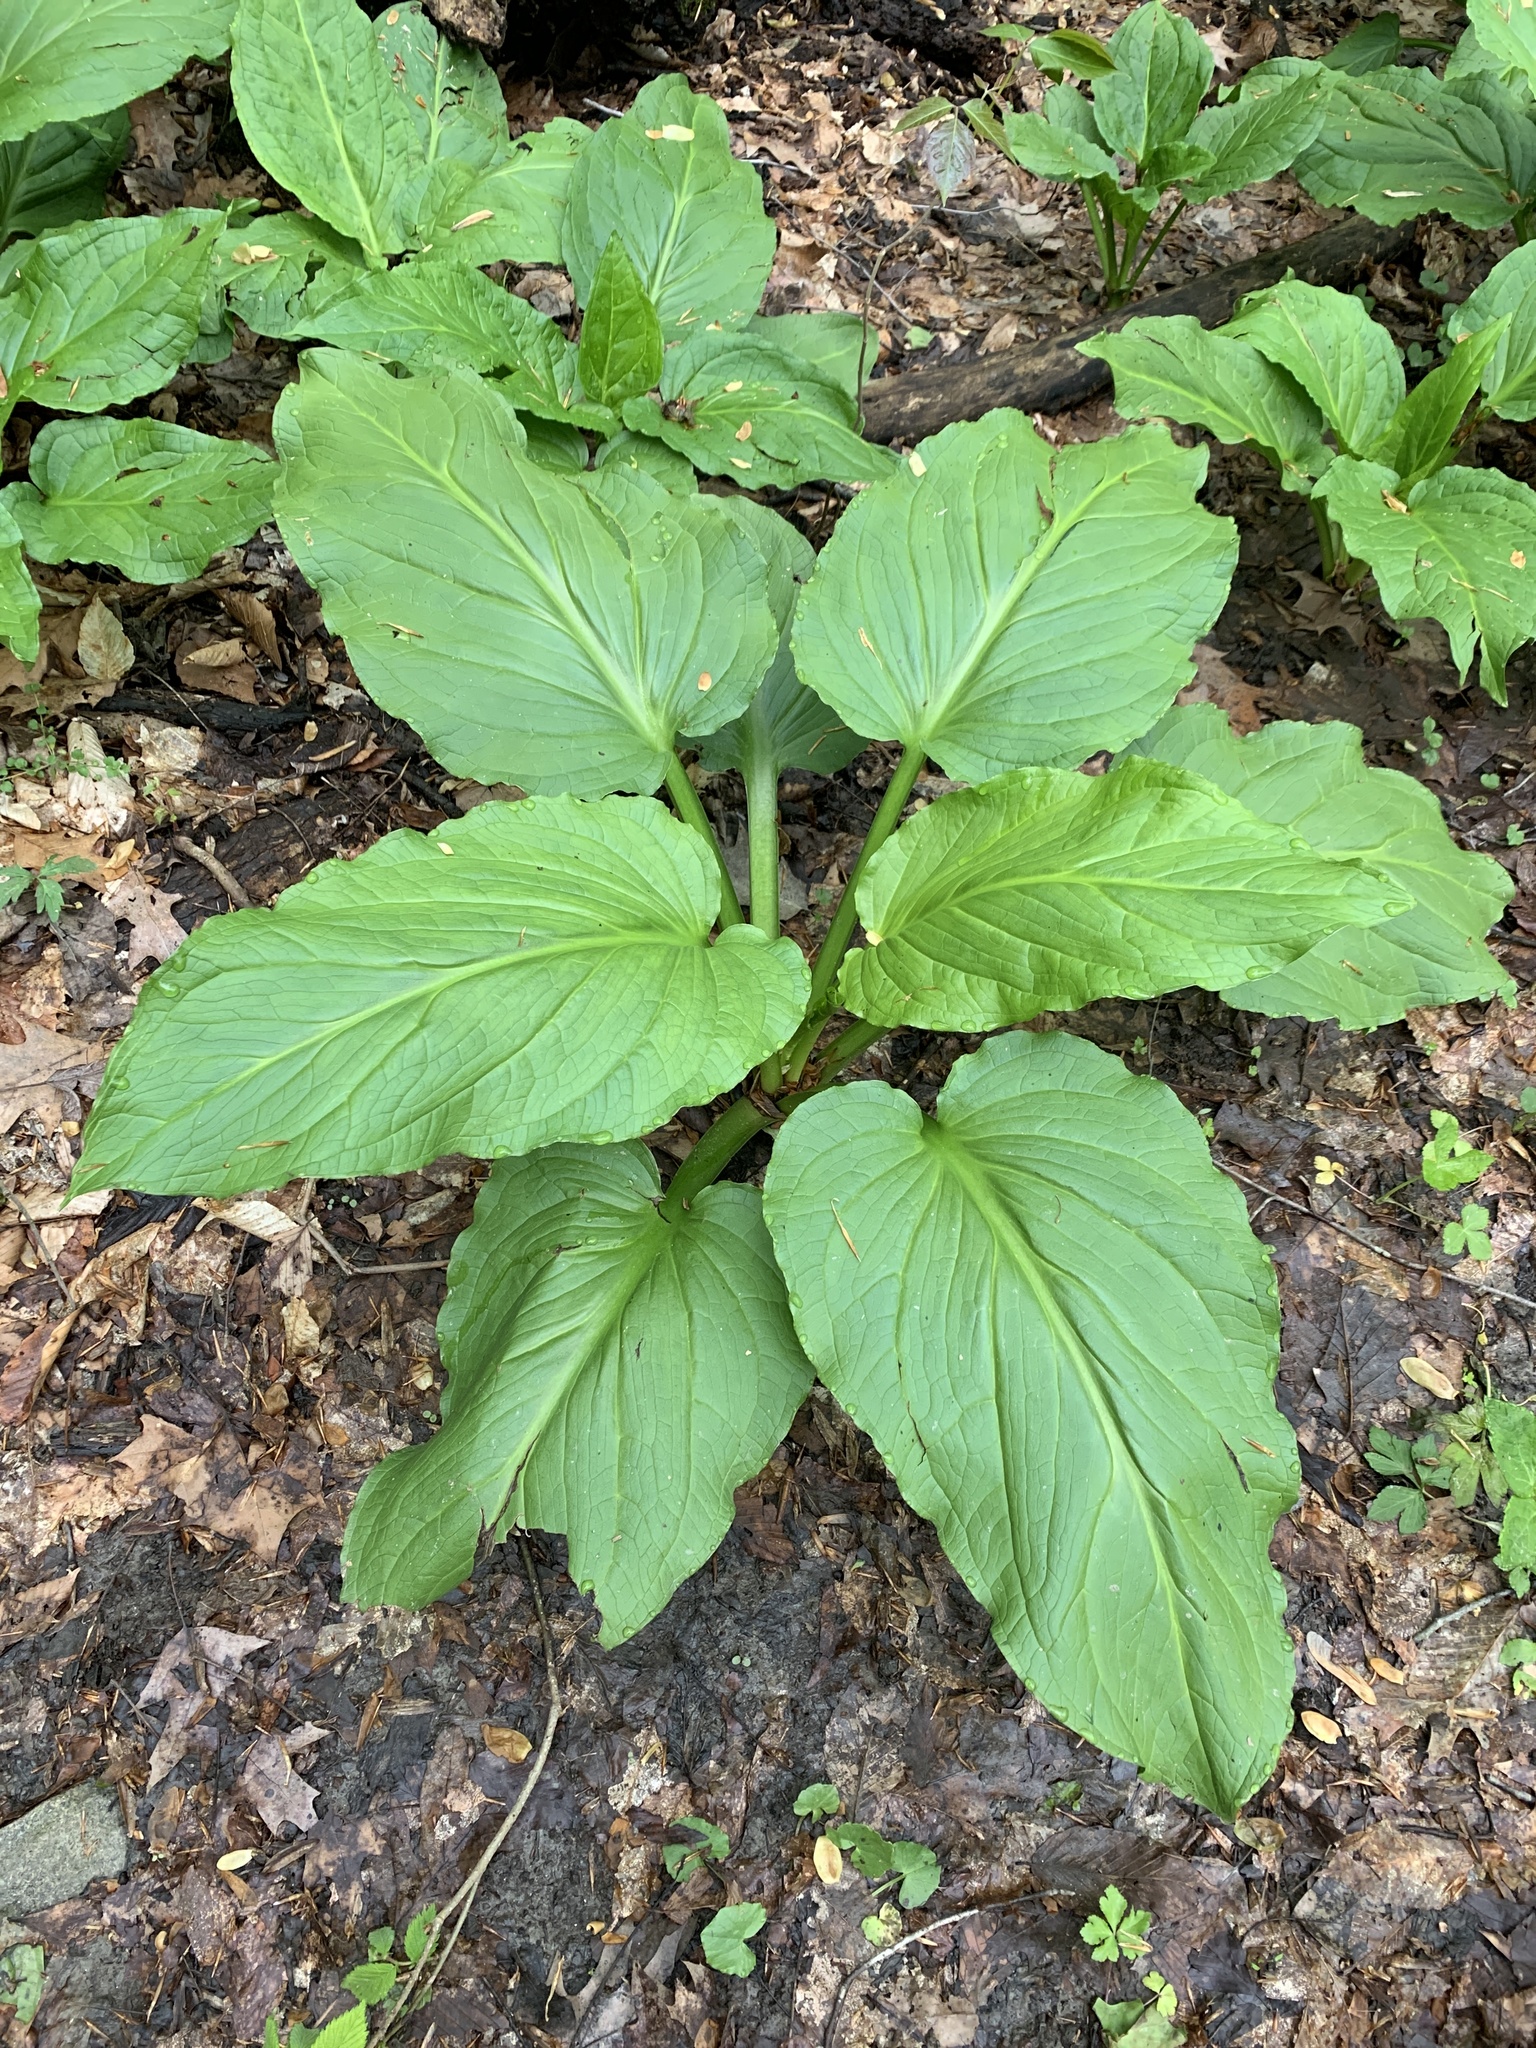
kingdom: Plantae
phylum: Tracheophyta
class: Liliopsida
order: Alismatales
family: Araceae
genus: Symplocarpus
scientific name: Symplocarpus foetidus
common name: Eastern skunk cabbage
